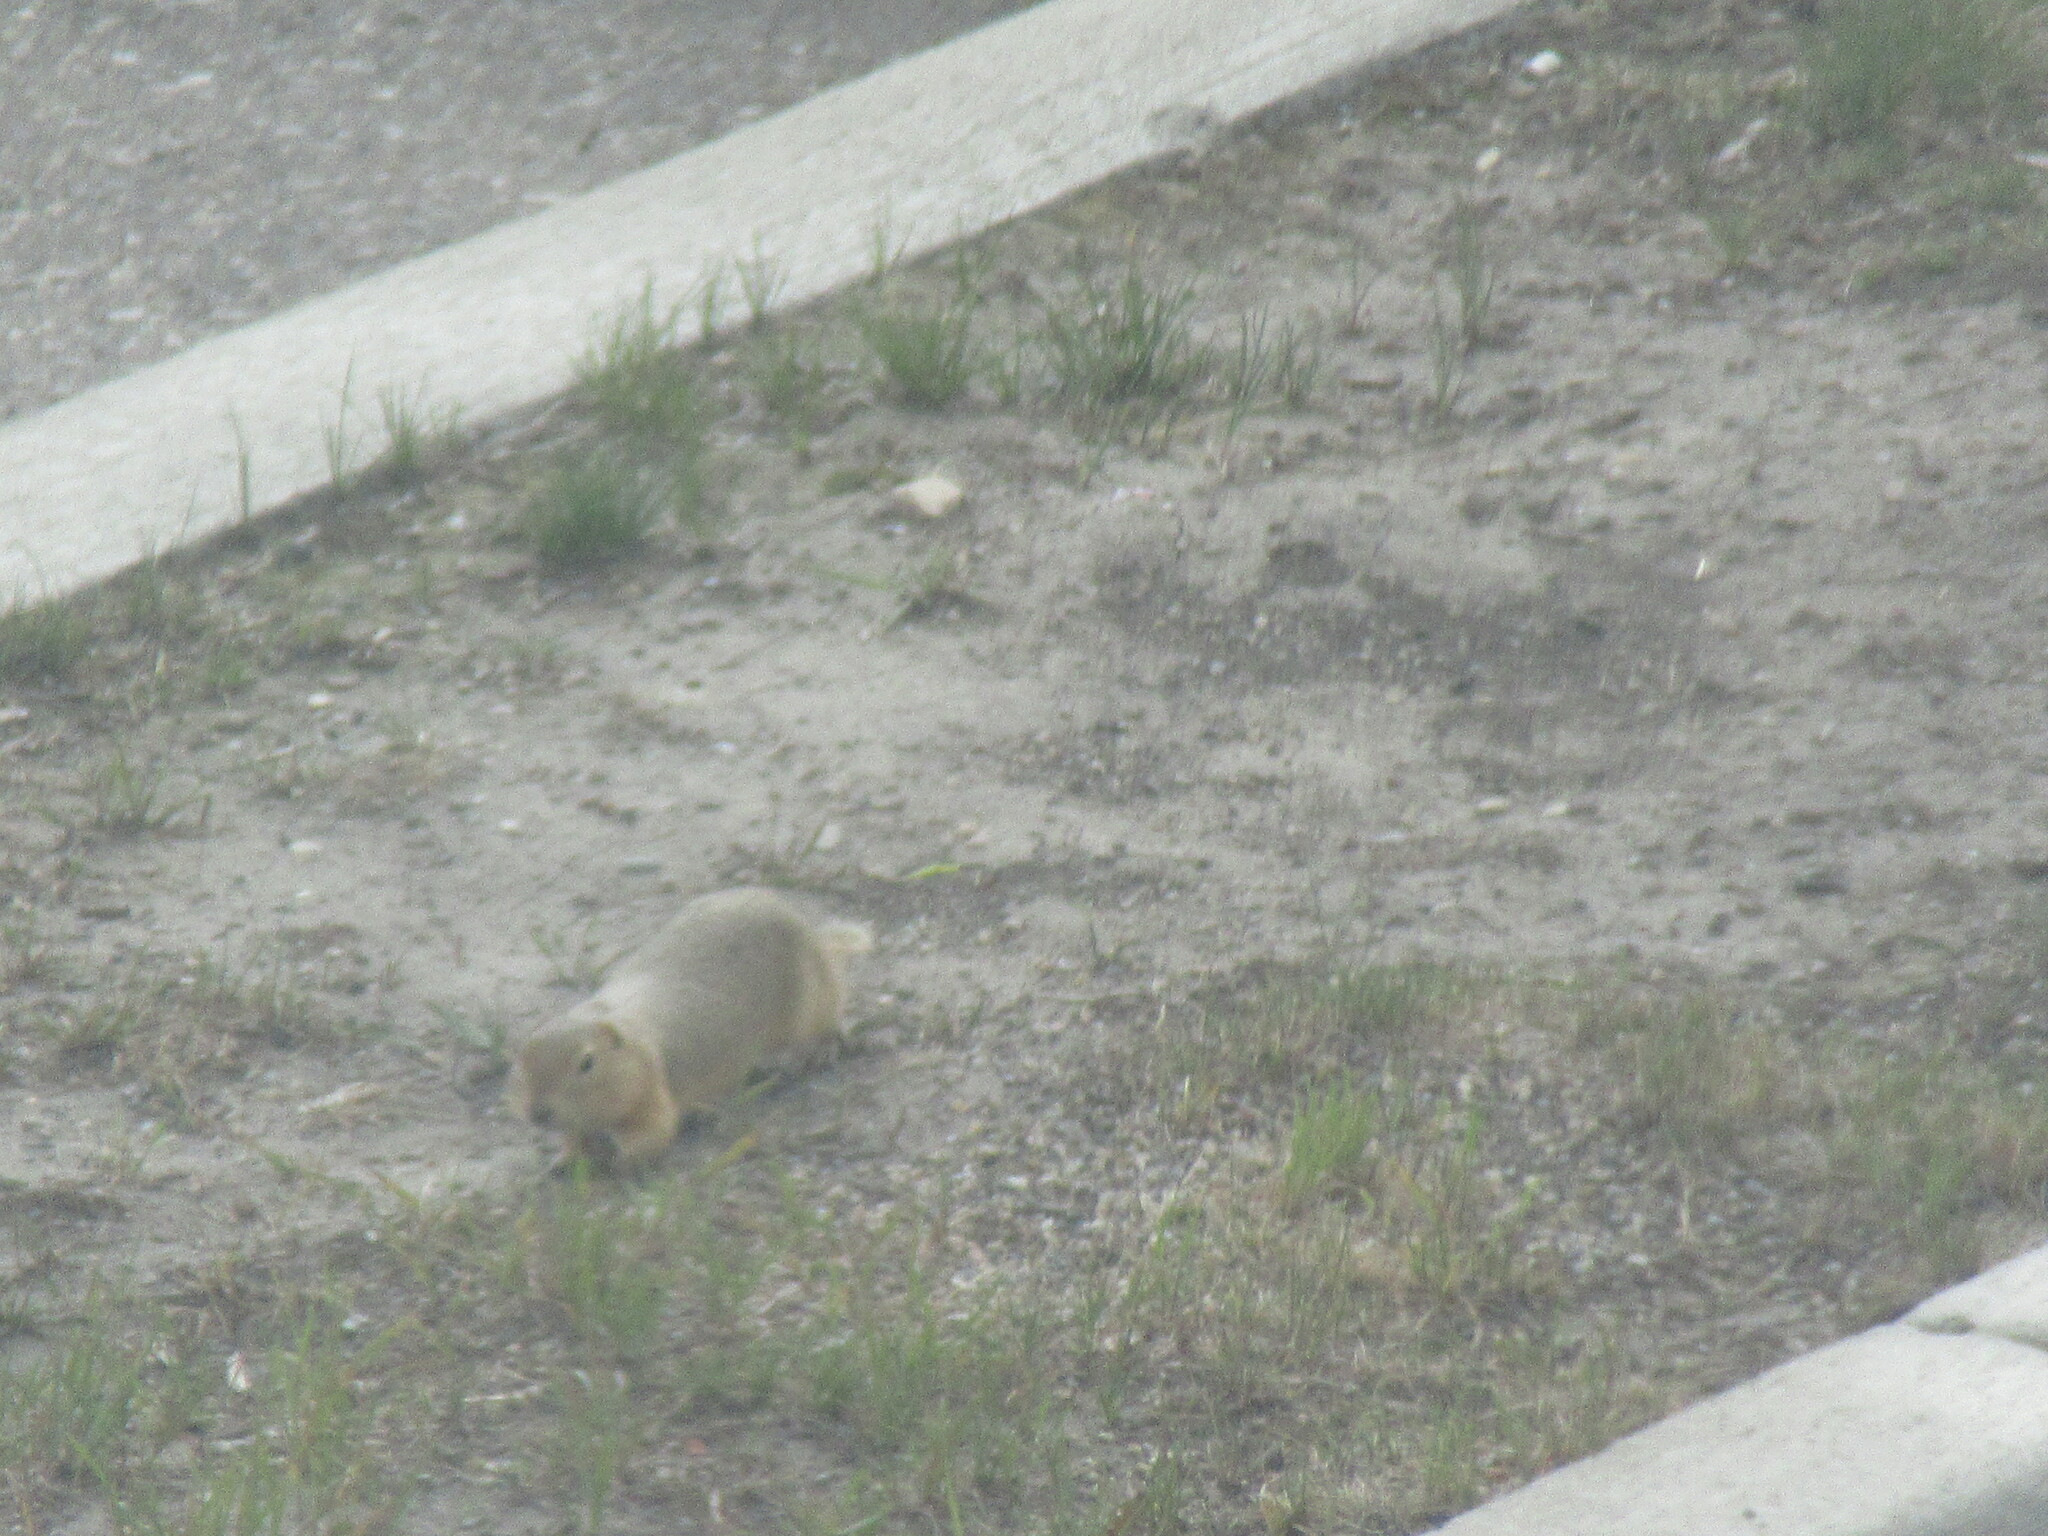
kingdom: Animalia
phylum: Chordata
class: Mammalia
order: Rodentia
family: Sciuridae
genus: Callospermophilus
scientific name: Callospermophilus lateralis
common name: Golden-mantled ground squirrel
